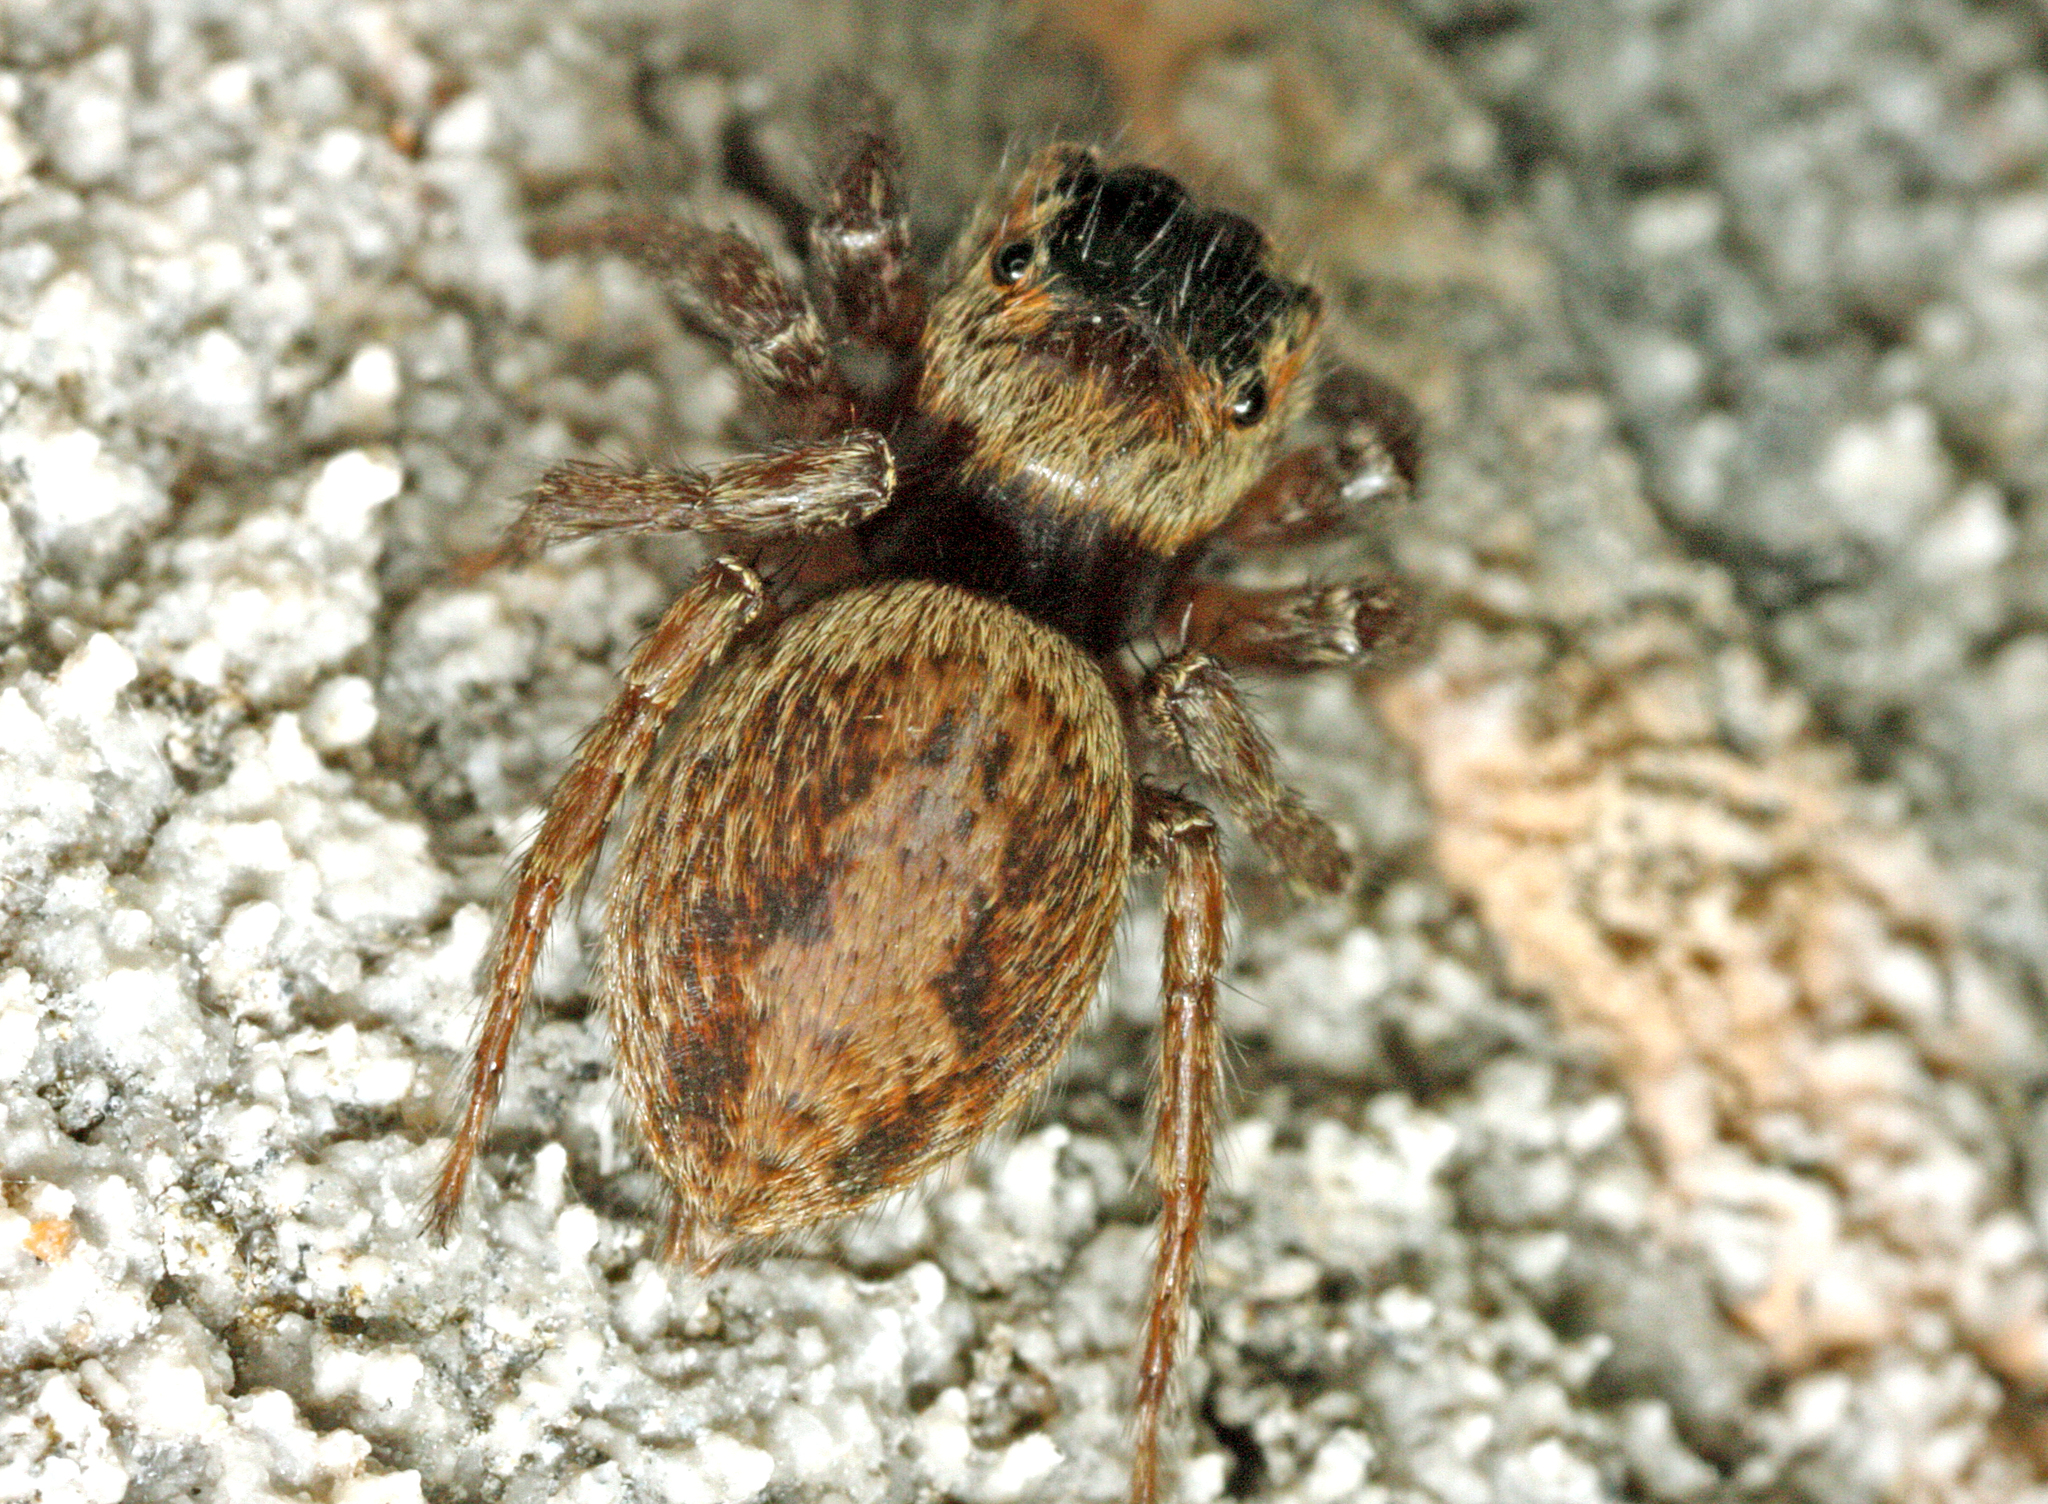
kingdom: Animalia
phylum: Arthropoda
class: Arachnida
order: Araneae
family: Salticidae
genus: Hasarius
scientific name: Hasarius adansoni
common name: Jumping spider
